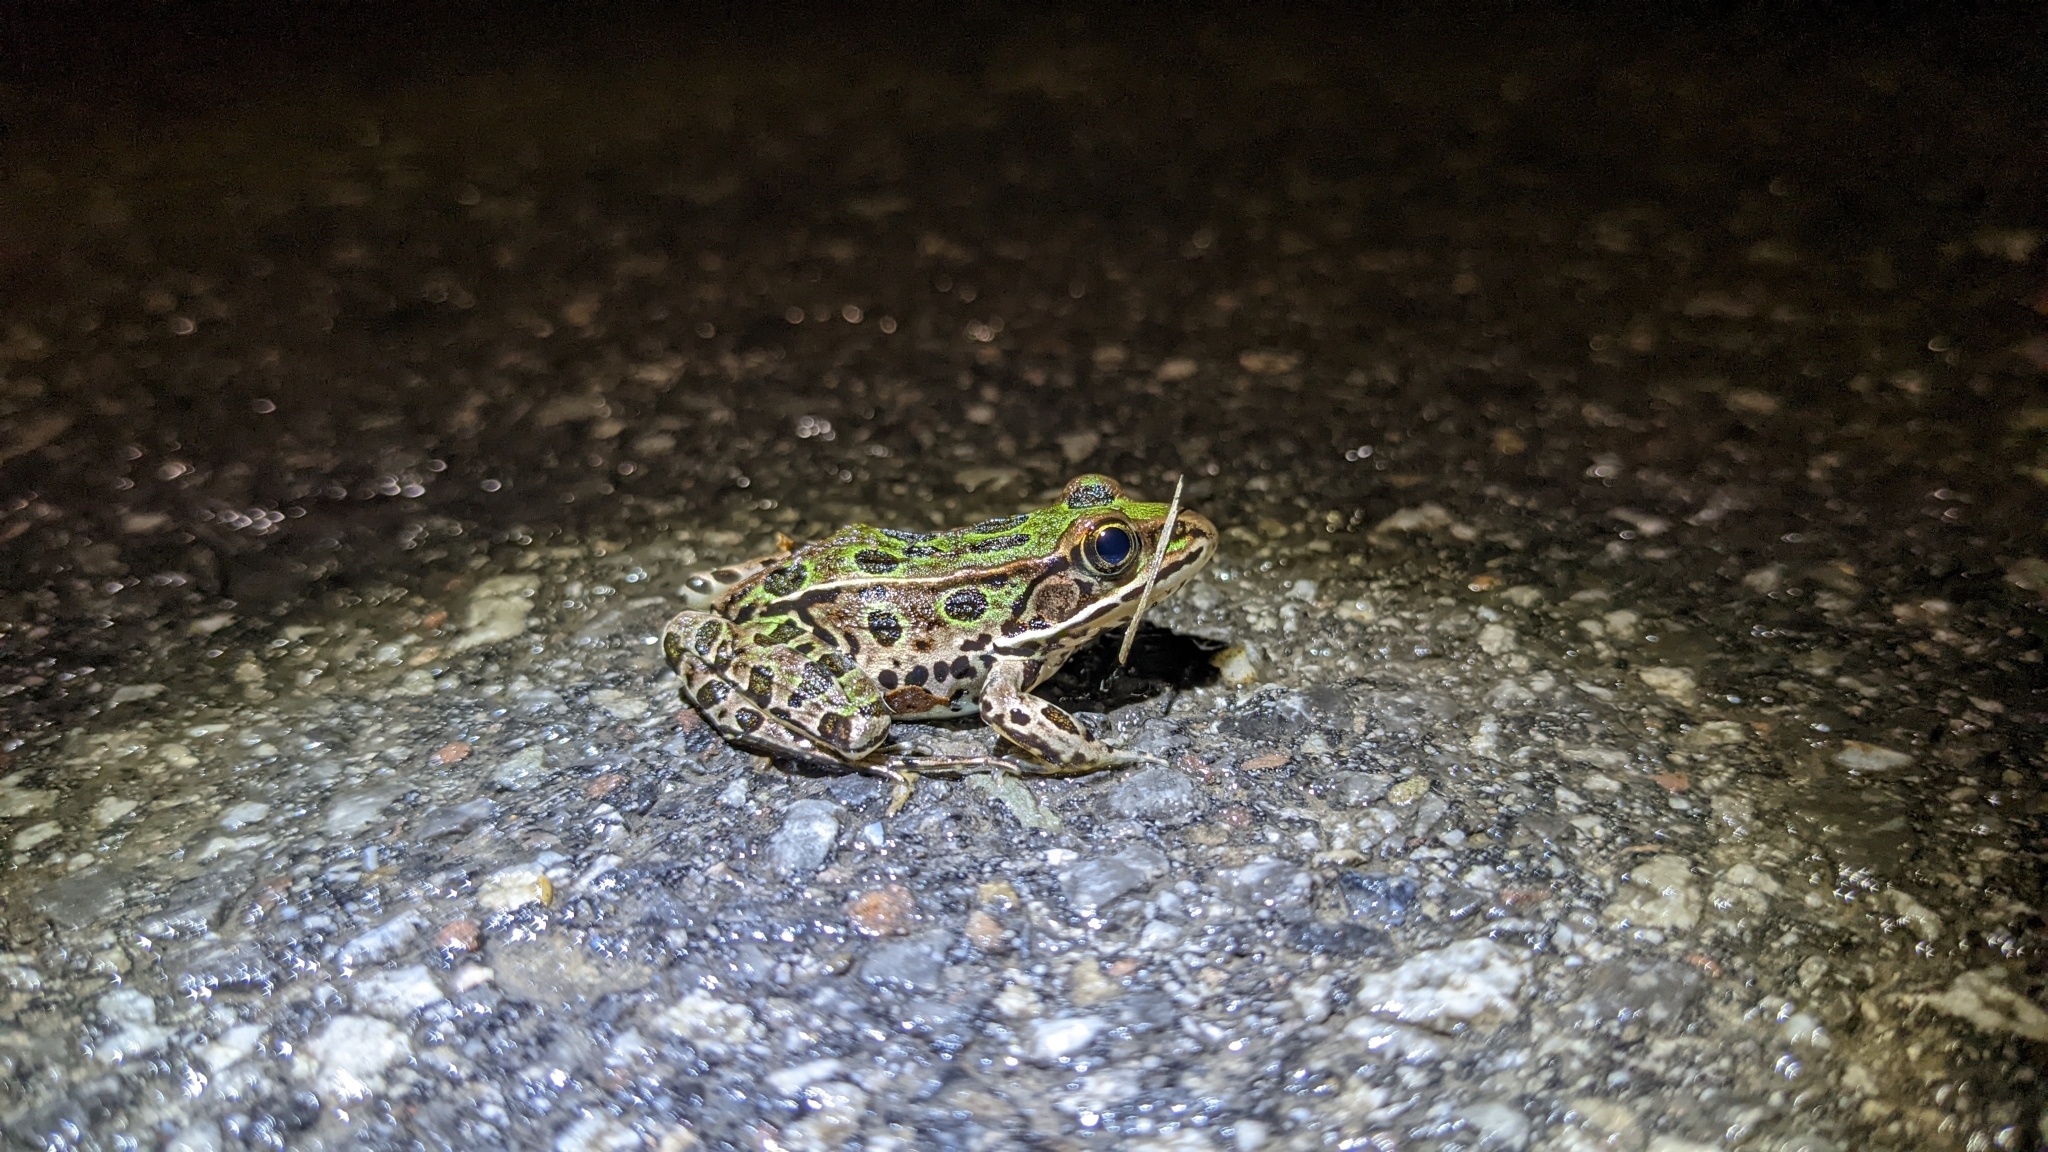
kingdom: Animalia
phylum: Chordata
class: Amphibia
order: Anura
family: Ranidae
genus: Lithobates
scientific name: Lithobates pipiens
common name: Northern leopard frog
